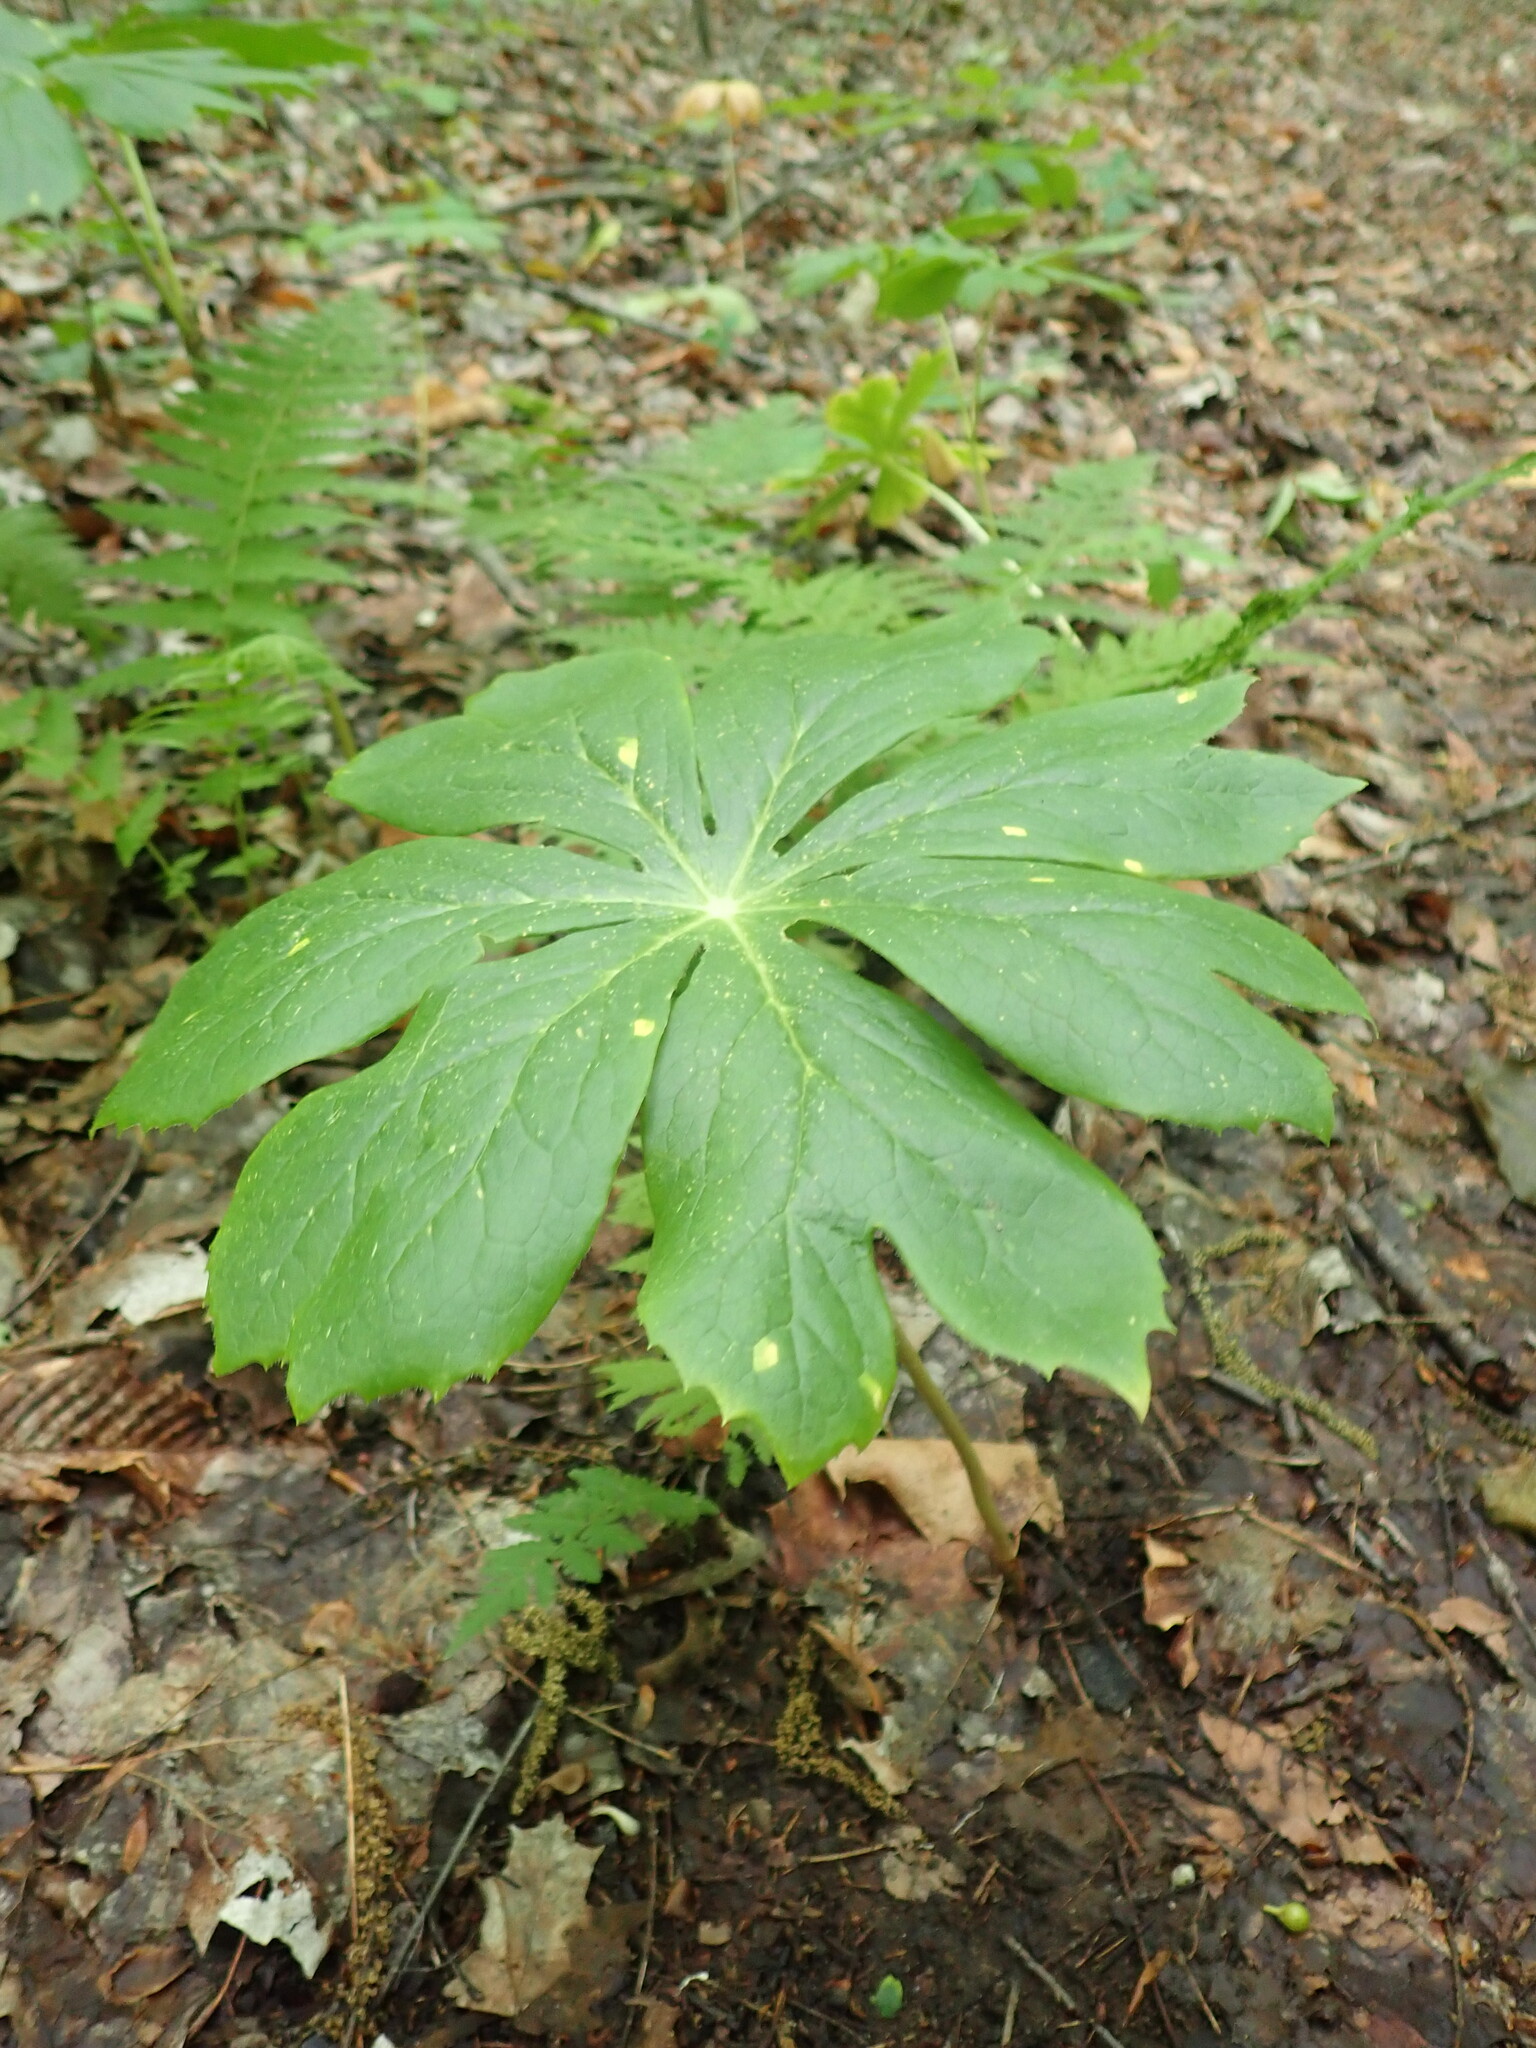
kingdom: Plantae
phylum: Tracheophyta
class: Magnoliopsida
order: Ranunculales
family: Berberidaceae
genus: Podophyllum
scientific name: Podophyllum peltatum
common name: Wild mandrake
